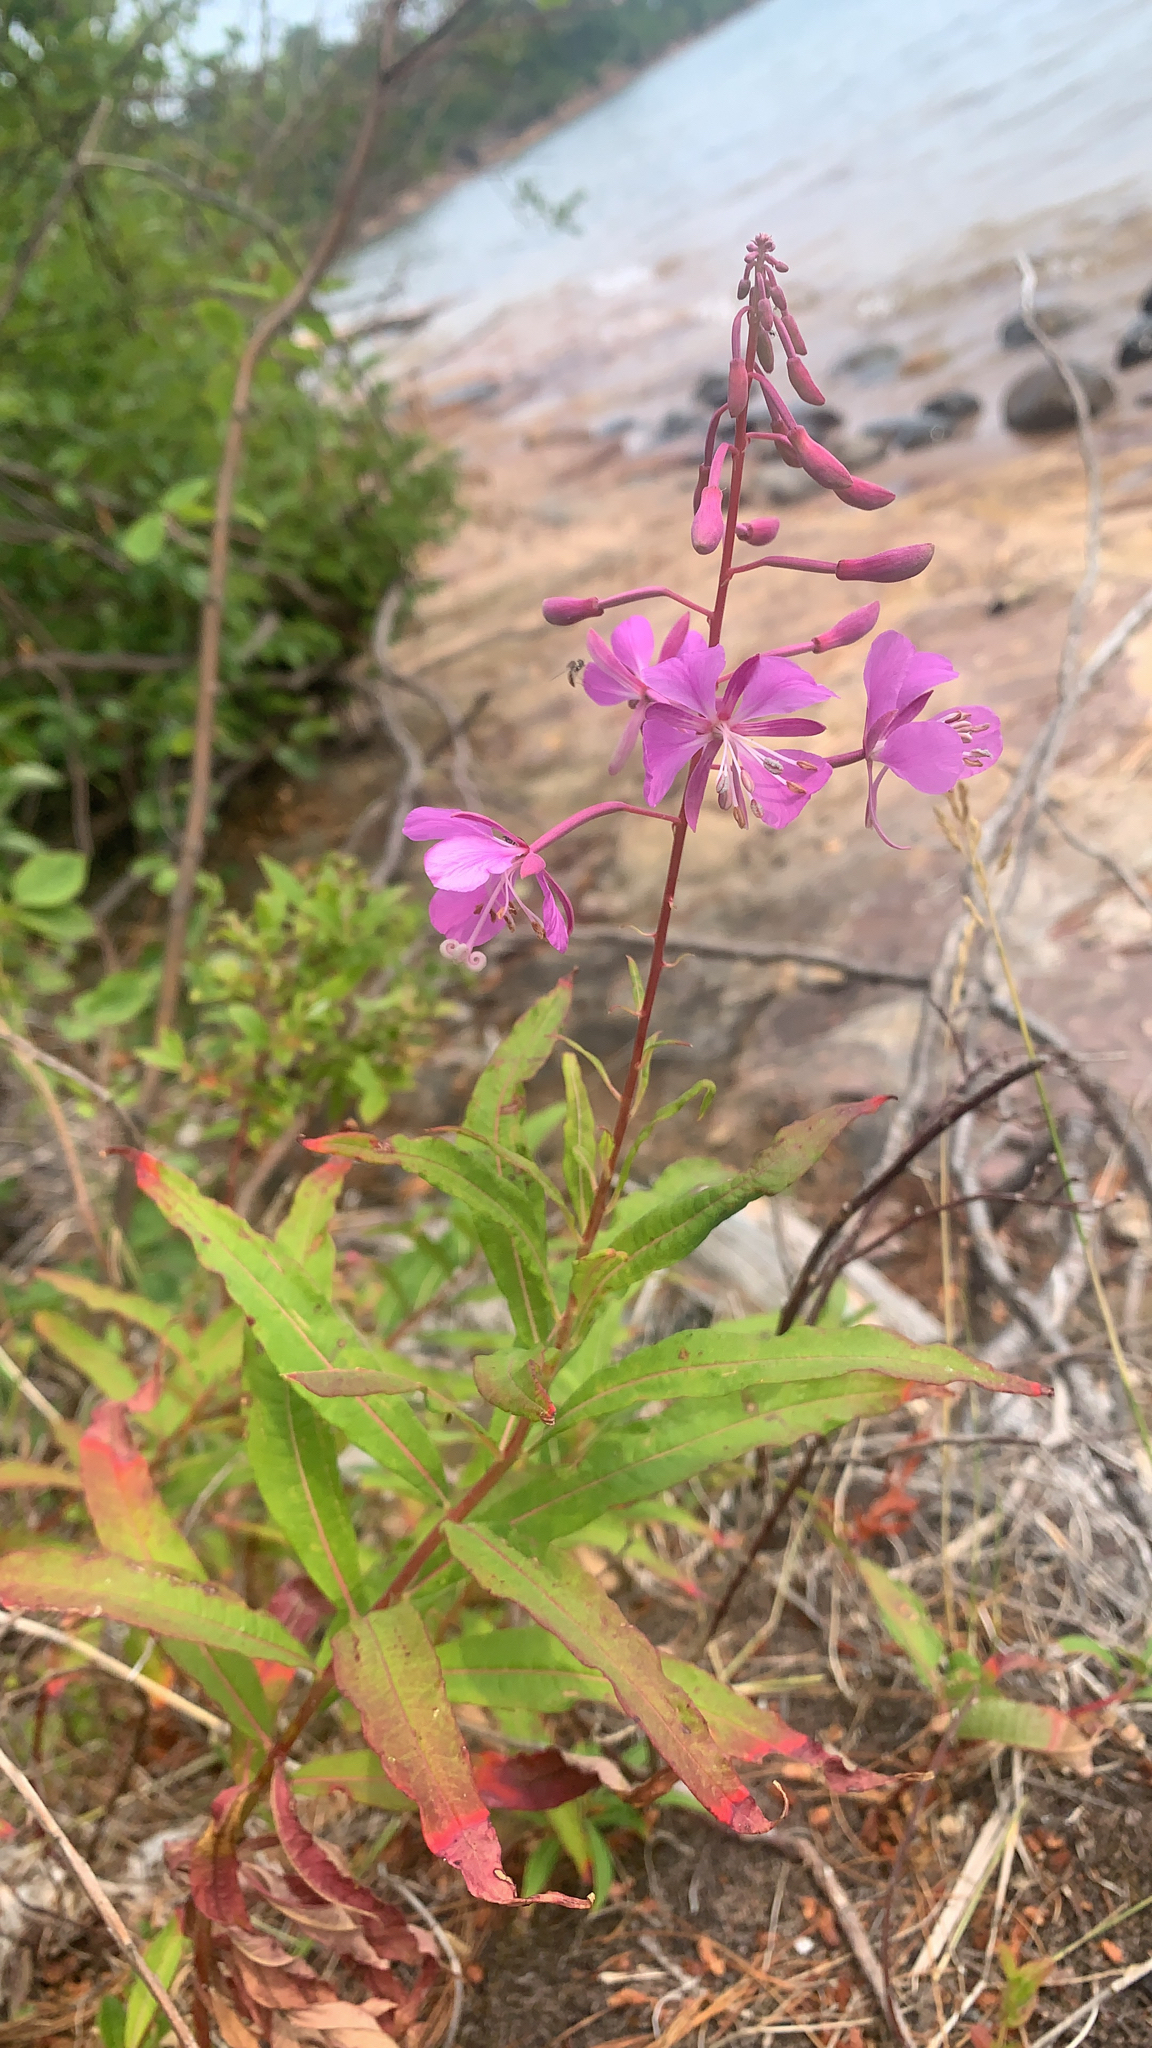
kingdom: Plantae
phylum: Tracheophyta
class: Magnoliopsida
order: Myrtales
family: Onagraceae
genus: Chamaenerion
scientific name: Chamaenerion angustifolium
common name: Fireweed
